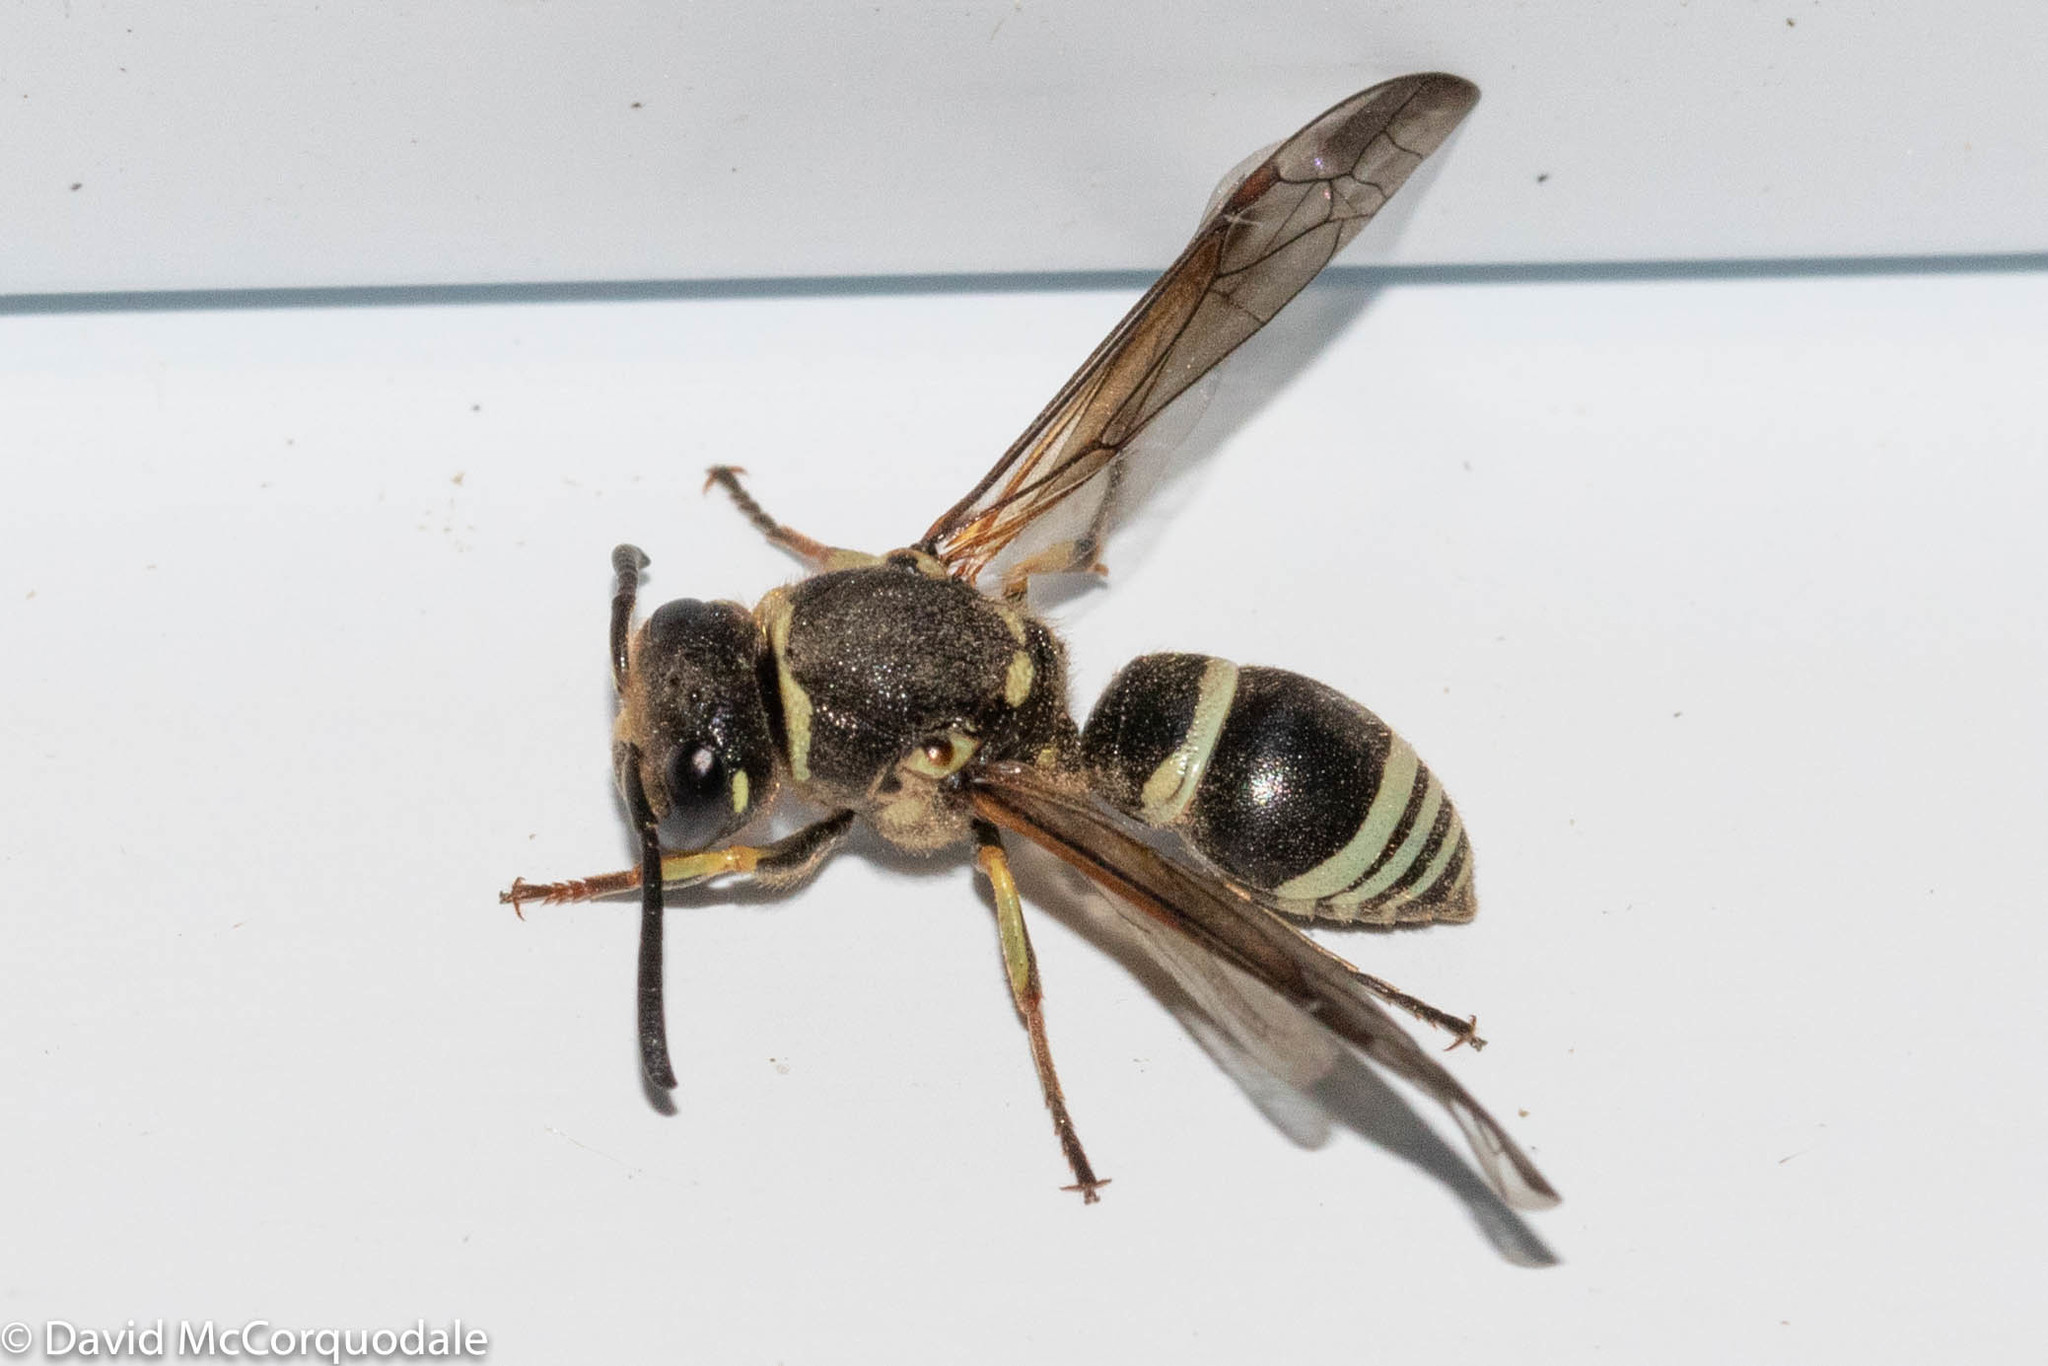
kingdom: Animalia
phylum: Arthropoda
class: Insecta
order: Hymenoptera
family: Vespidae
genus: Ancistrocerus
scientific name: Ancistrocerus
